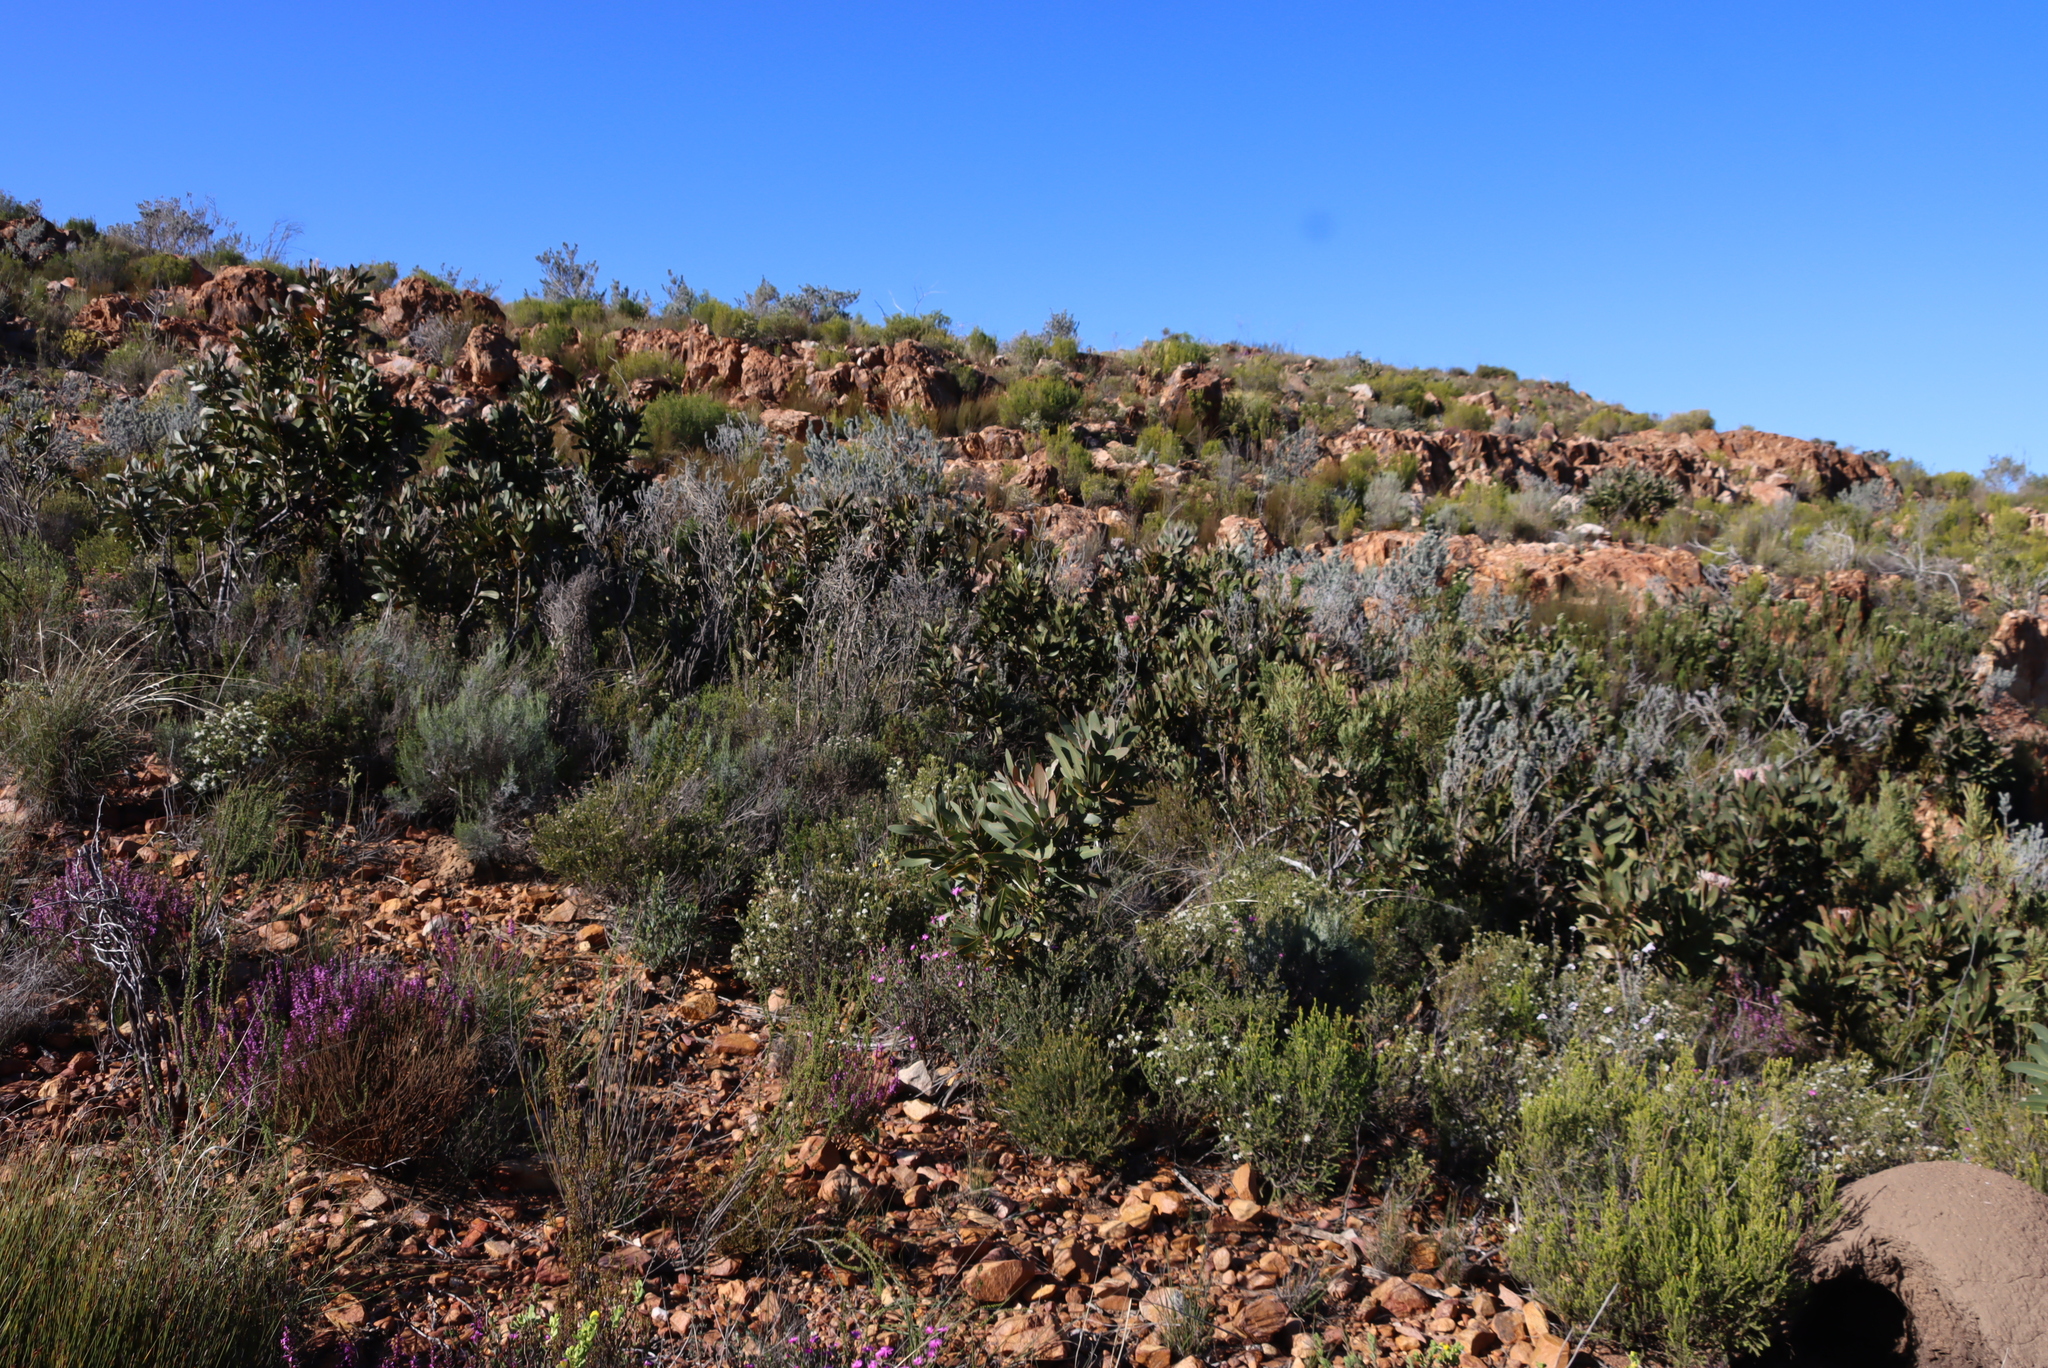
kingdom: Plantae
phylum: Tracheophyta
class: Magnoliopsida
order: Proteales
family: Proteaceae
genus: Protea
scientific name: Protea lorifolia
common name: Strap-leaved protea
